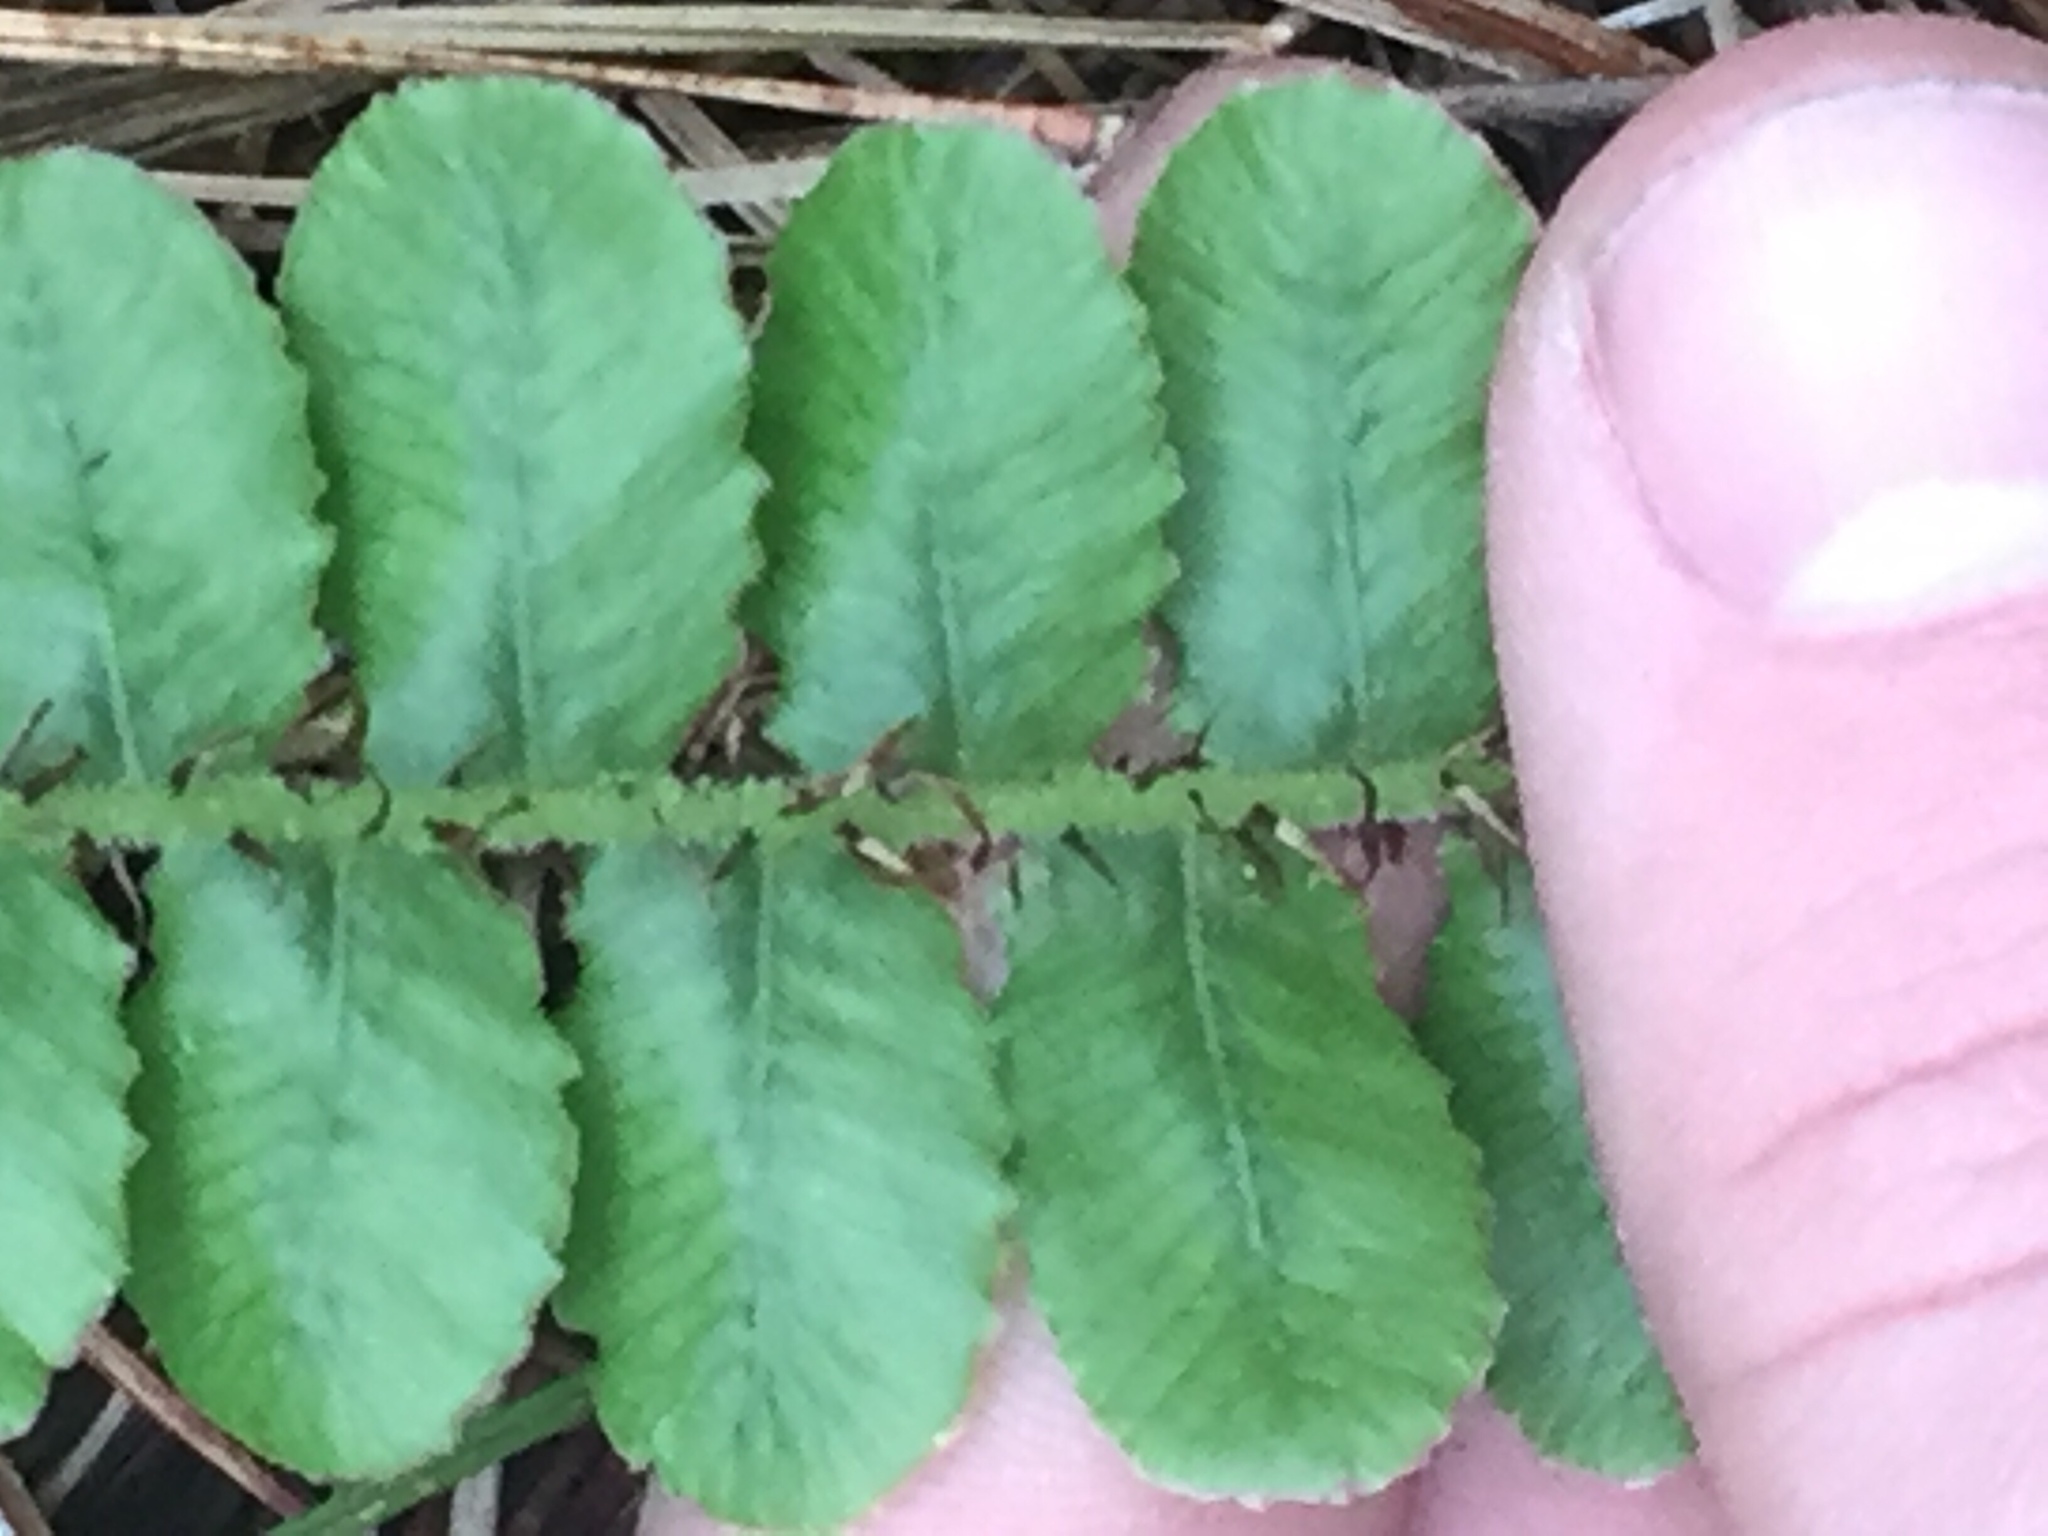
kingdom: Plantae
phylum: Tracheophyta
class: Polypodiopsida
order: Polypodiales
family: Blechnaceae
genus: Cranfillia
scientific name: Cranfillia fluviatilis
